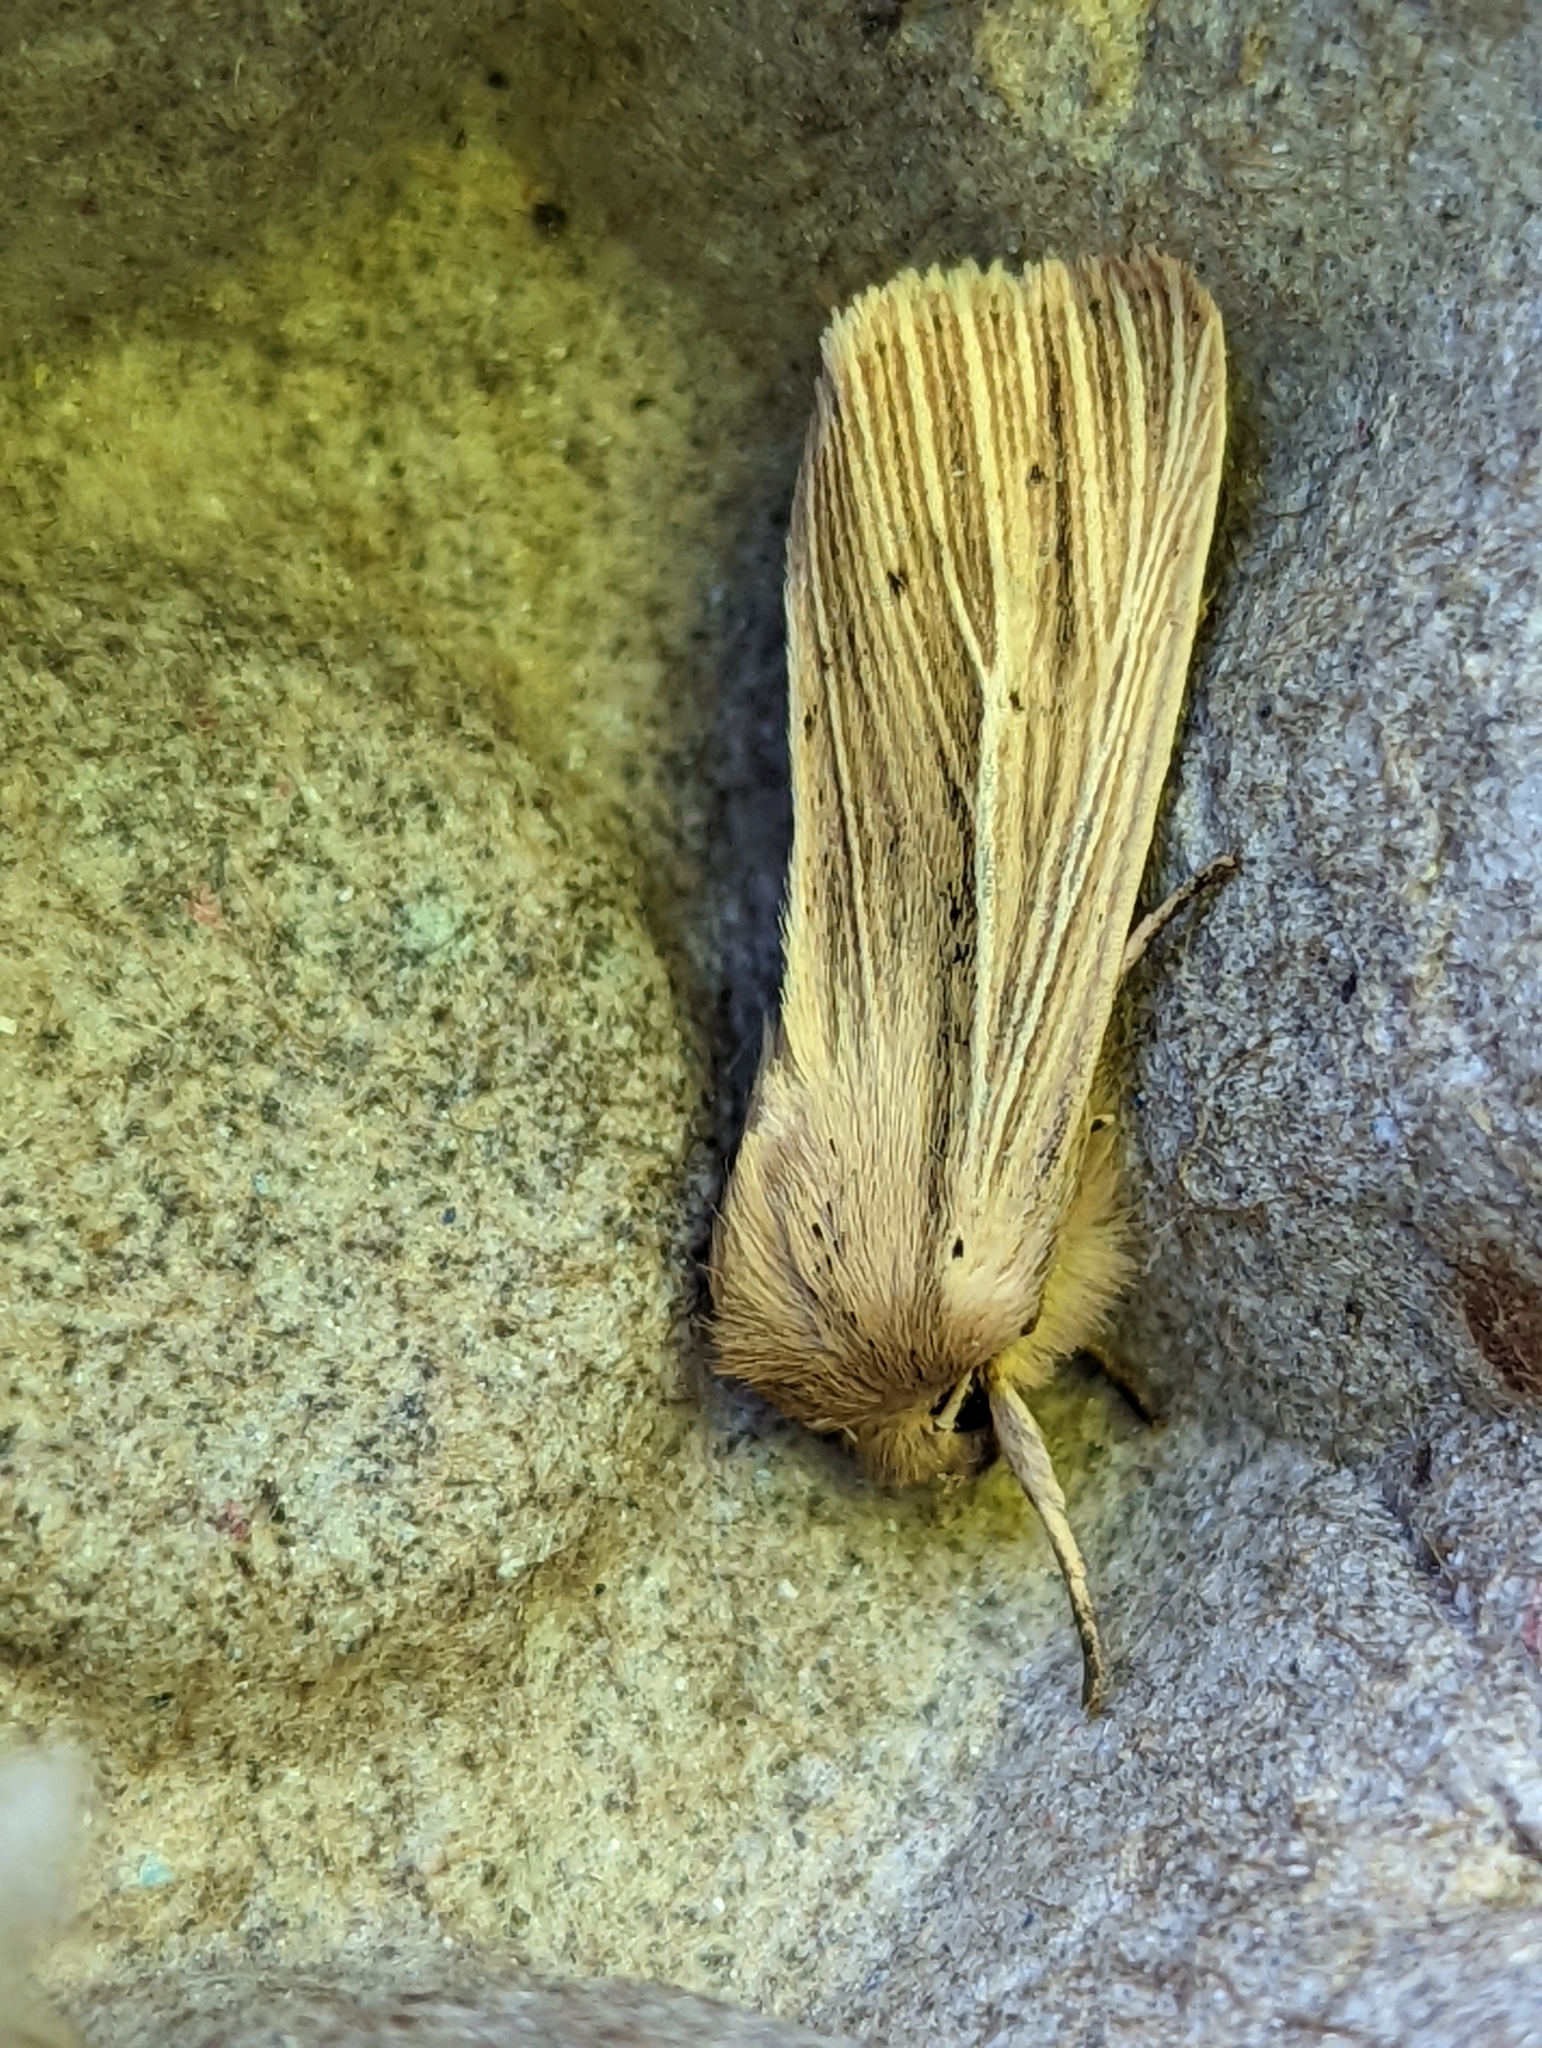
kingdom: Animalia
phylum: Arthropoda
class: Insecta
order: Lepidoptera
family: Noctuidae
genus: Mythimna
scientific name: Mythimna impura
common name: Smoky wainscot
